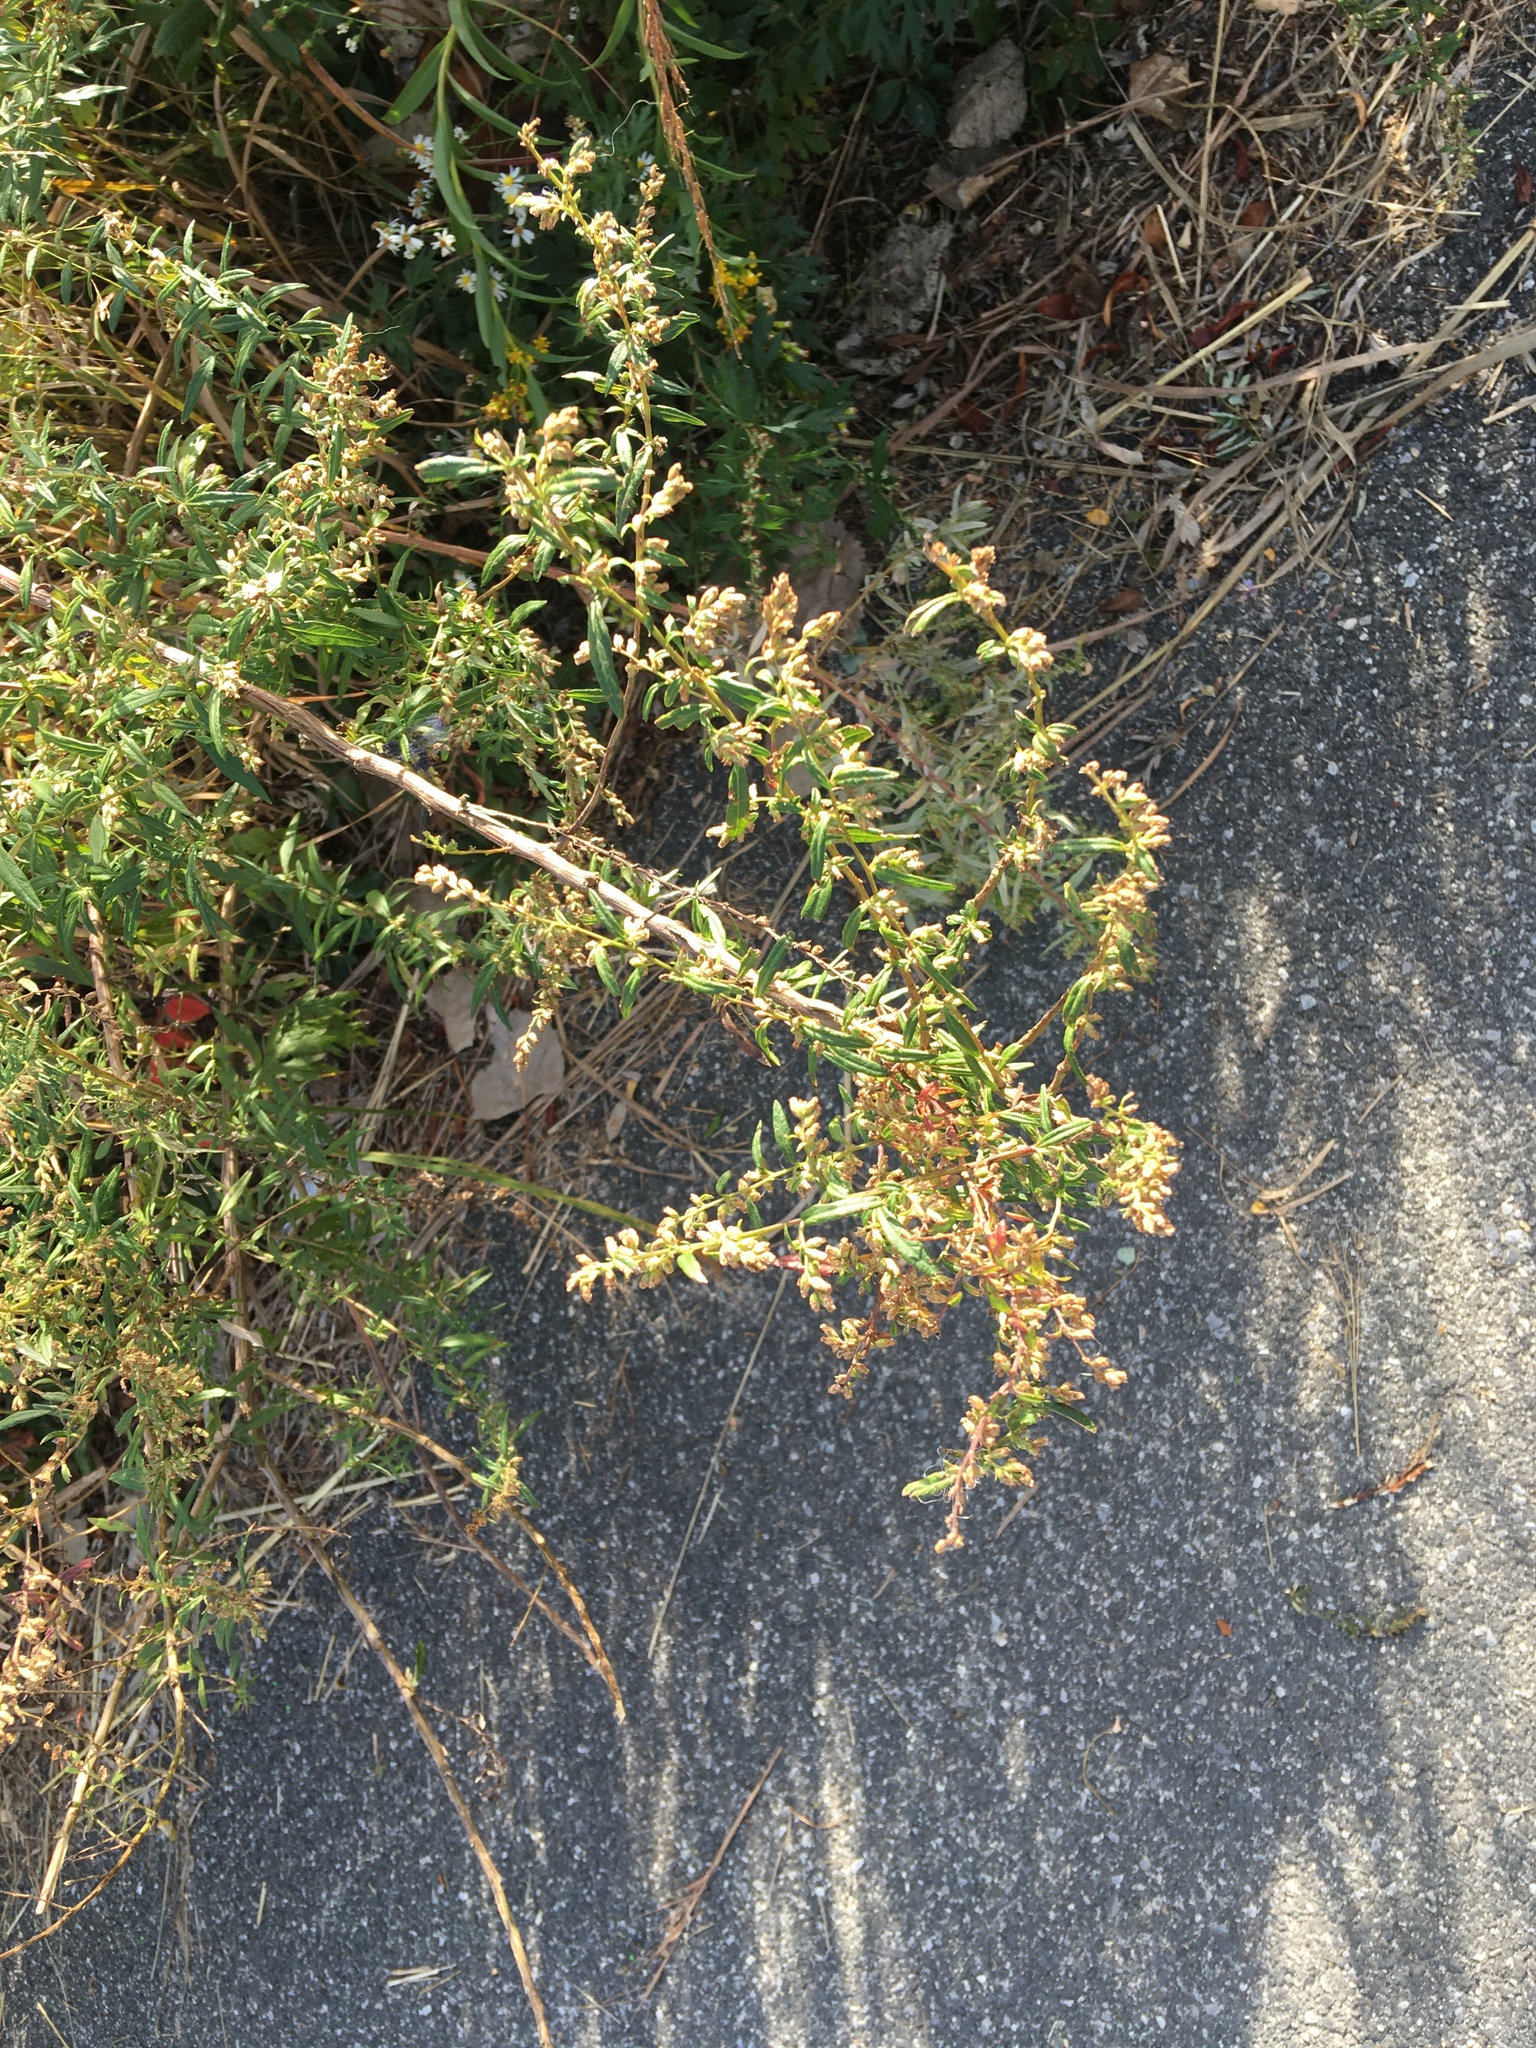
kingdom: Plantae
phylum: Tracheophyta
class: Magnoliopsida
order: Asterales
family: Asteraceae
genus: Artemisia
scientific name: Artemisia vulgaris
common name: Mugwort
